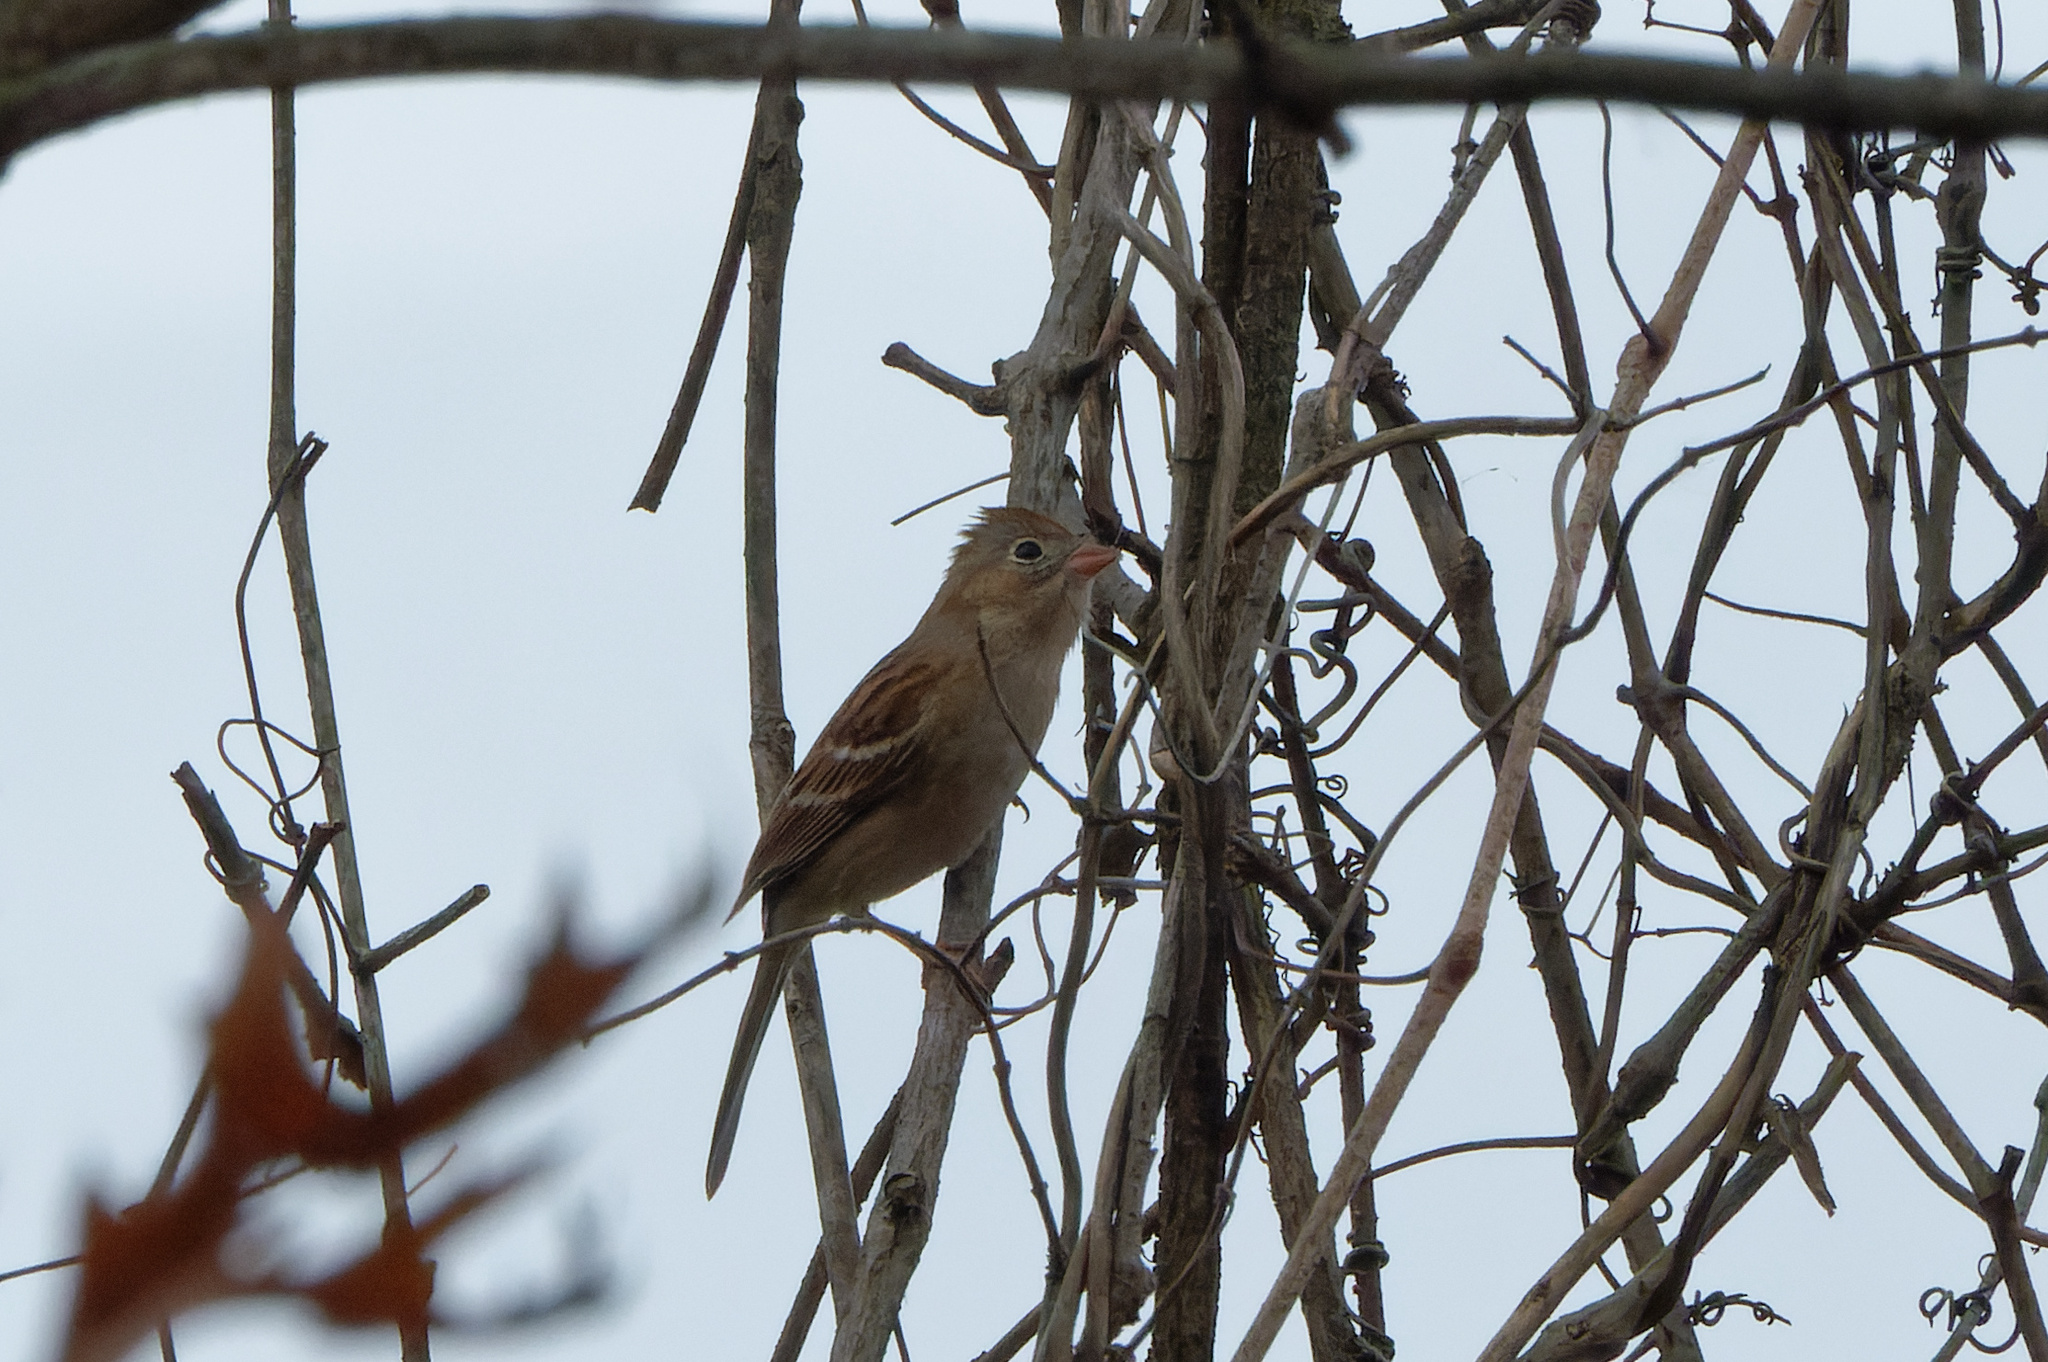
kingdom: Animalia
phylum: Chordata
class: Aves
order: Passeriformes
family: Passerellidae
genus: Spizella
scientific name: Spizella pusilla
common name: Field sparrow
